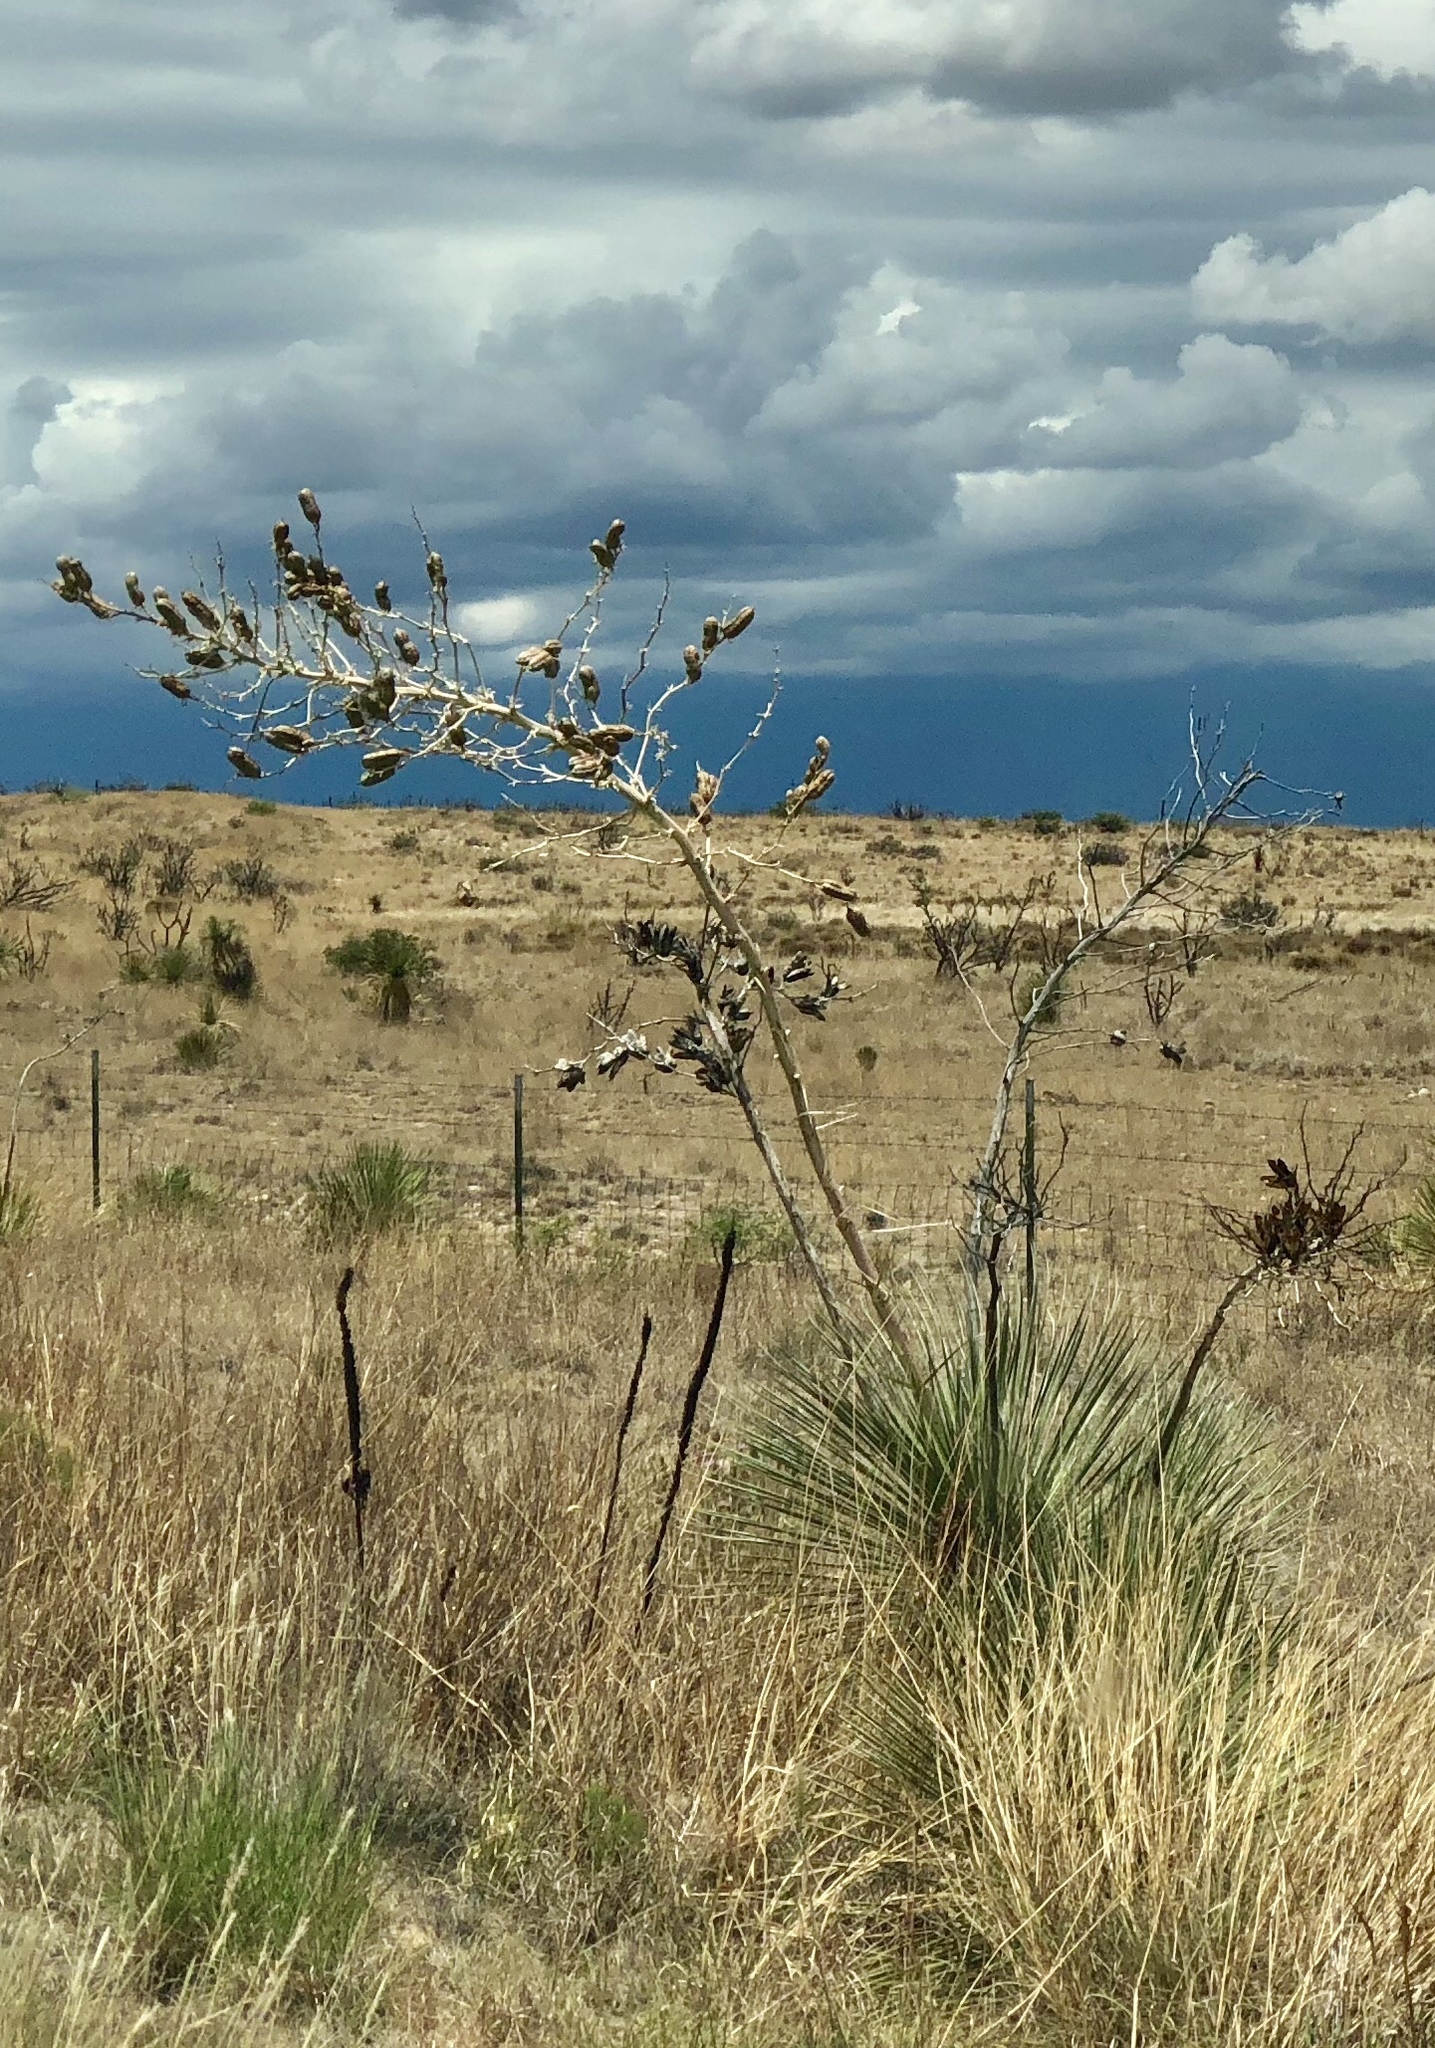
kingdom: Plantae
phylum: Tracheophyta
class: Liliopsida
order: Asparagales
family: Asparagaceae
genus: Yucca
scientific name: Yucca elata
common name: Palmella
